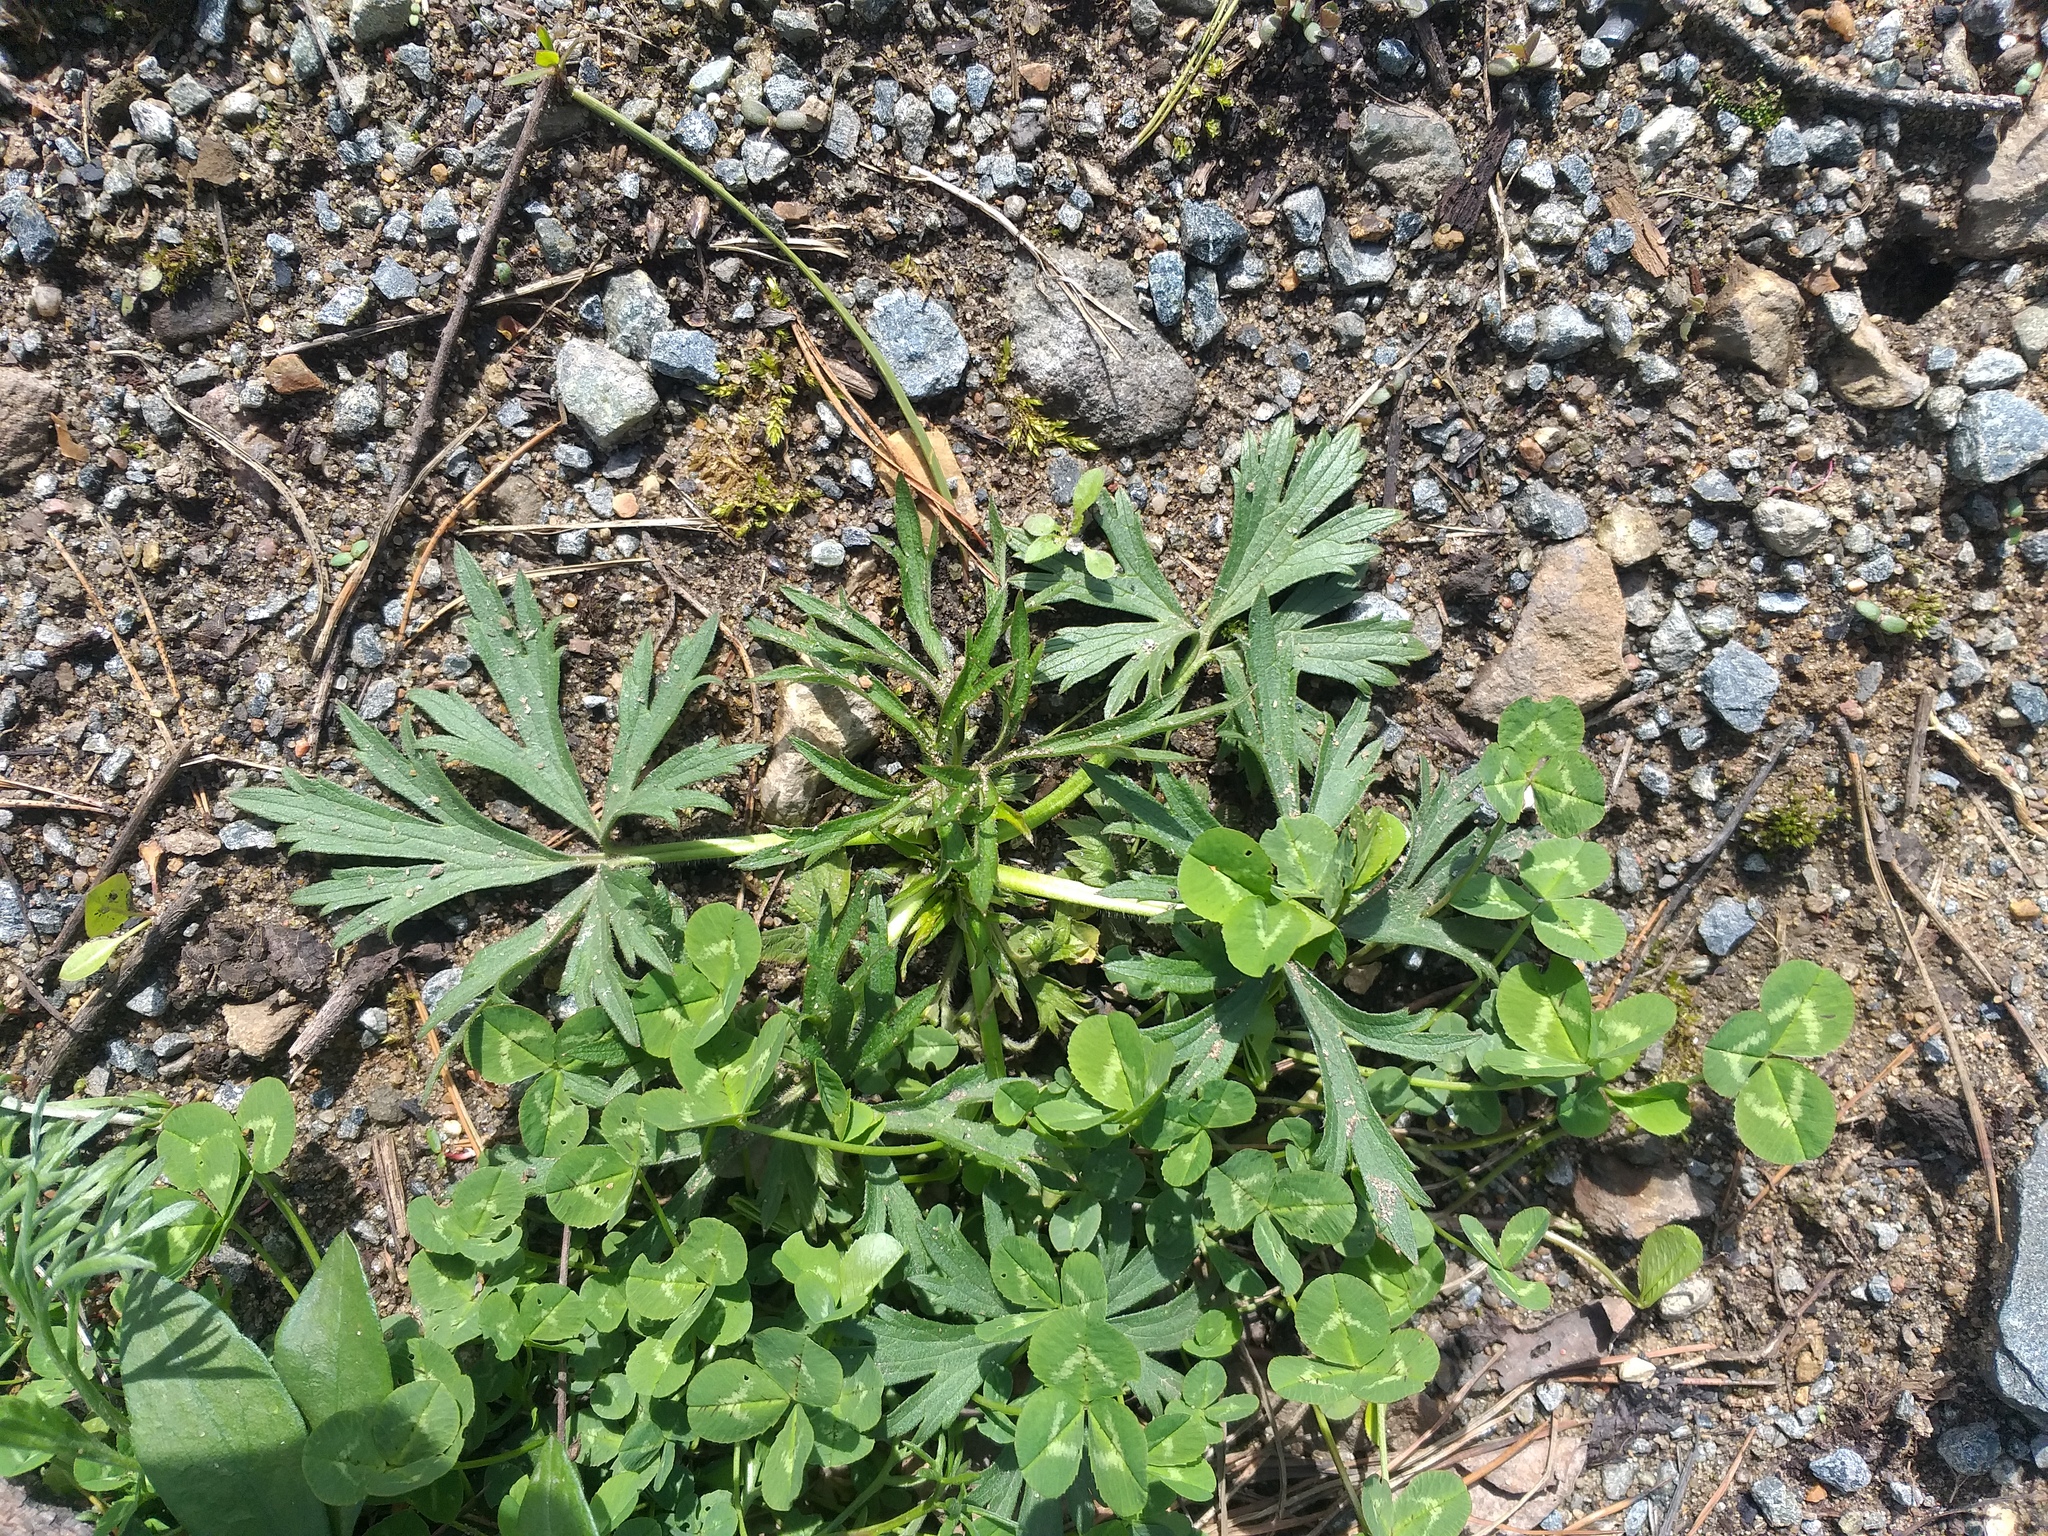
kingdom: Plantae
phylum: Tracheophyta
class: Magnoliopsida
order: Ranunculales
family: Ranunculaceae
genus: Ranunculus
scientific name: Ranunculus acris
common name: Meadow buttercup
